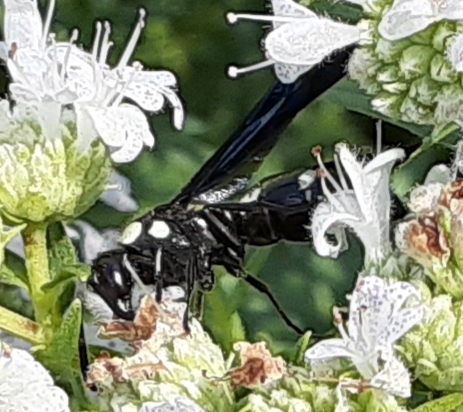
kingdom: Animalia
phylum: Arthropoda
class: Insecta
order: Hymenoptera
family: Eumenidae
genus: Pseudodynerus
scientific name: Pseudodynerus quadrisectus
